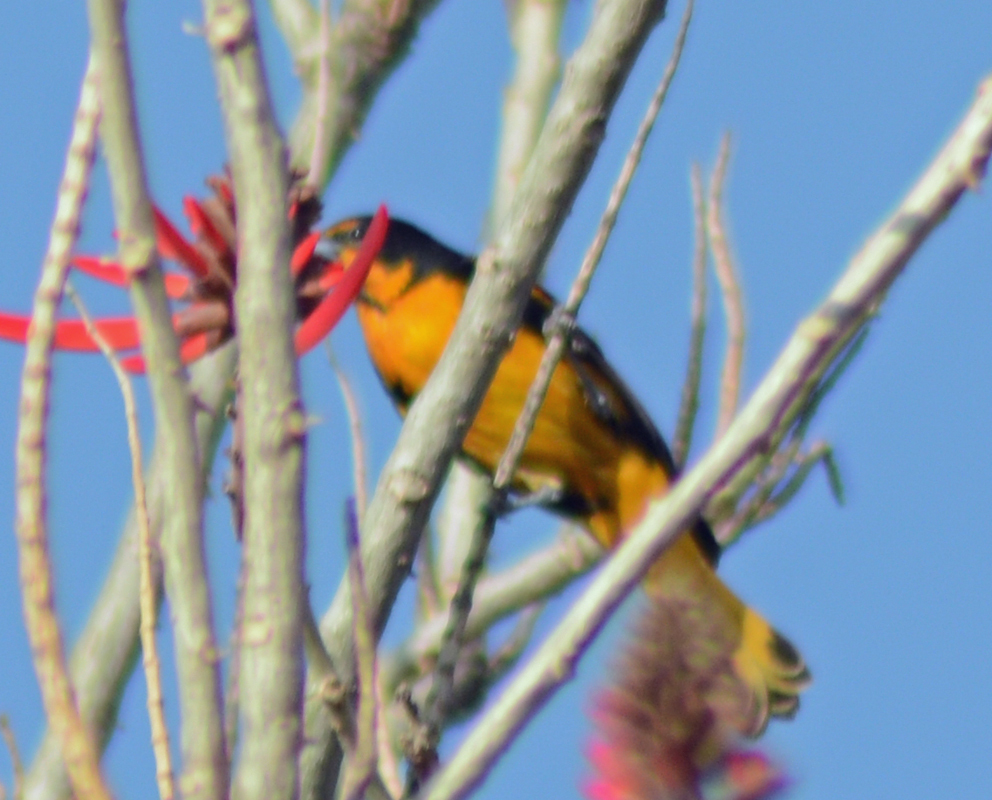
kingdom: Animalia
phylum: Chordata
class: Aves
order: Passeriformes
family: Icteridae
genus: Icterus
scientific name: Icterus abeillei
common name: Black-backed oriole
